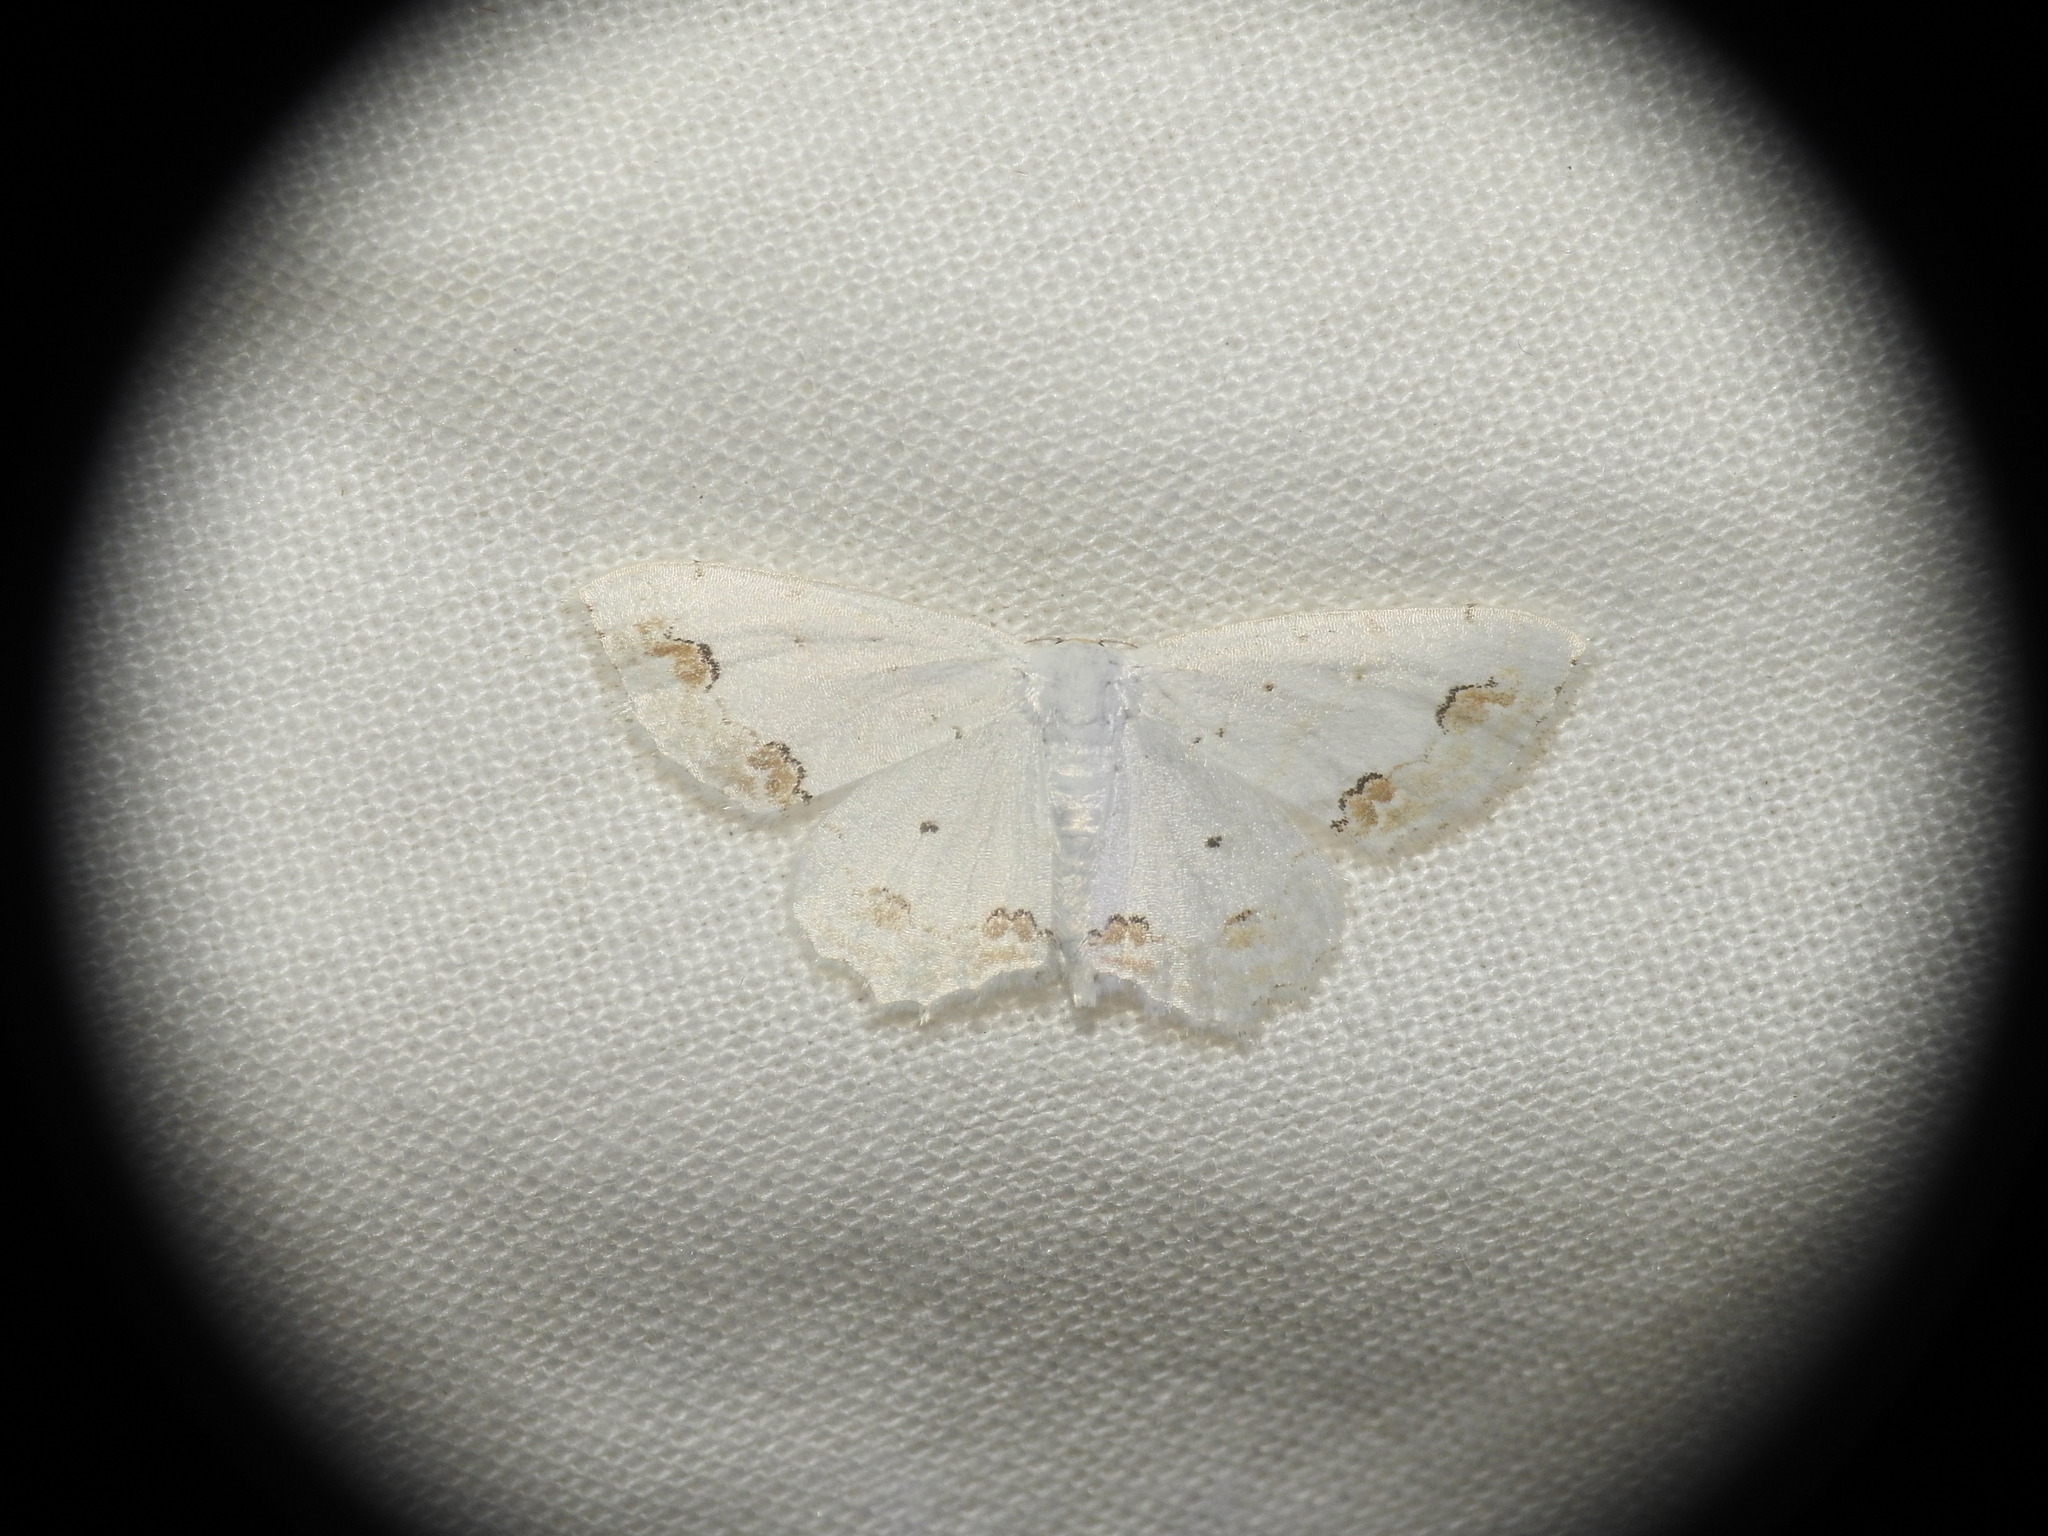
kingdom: Animalia
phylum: Arthropoda
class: Insecta
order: Lepidoptera
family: Geometridae
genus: Scopula
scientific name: Scopula ornata
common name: Lace border
